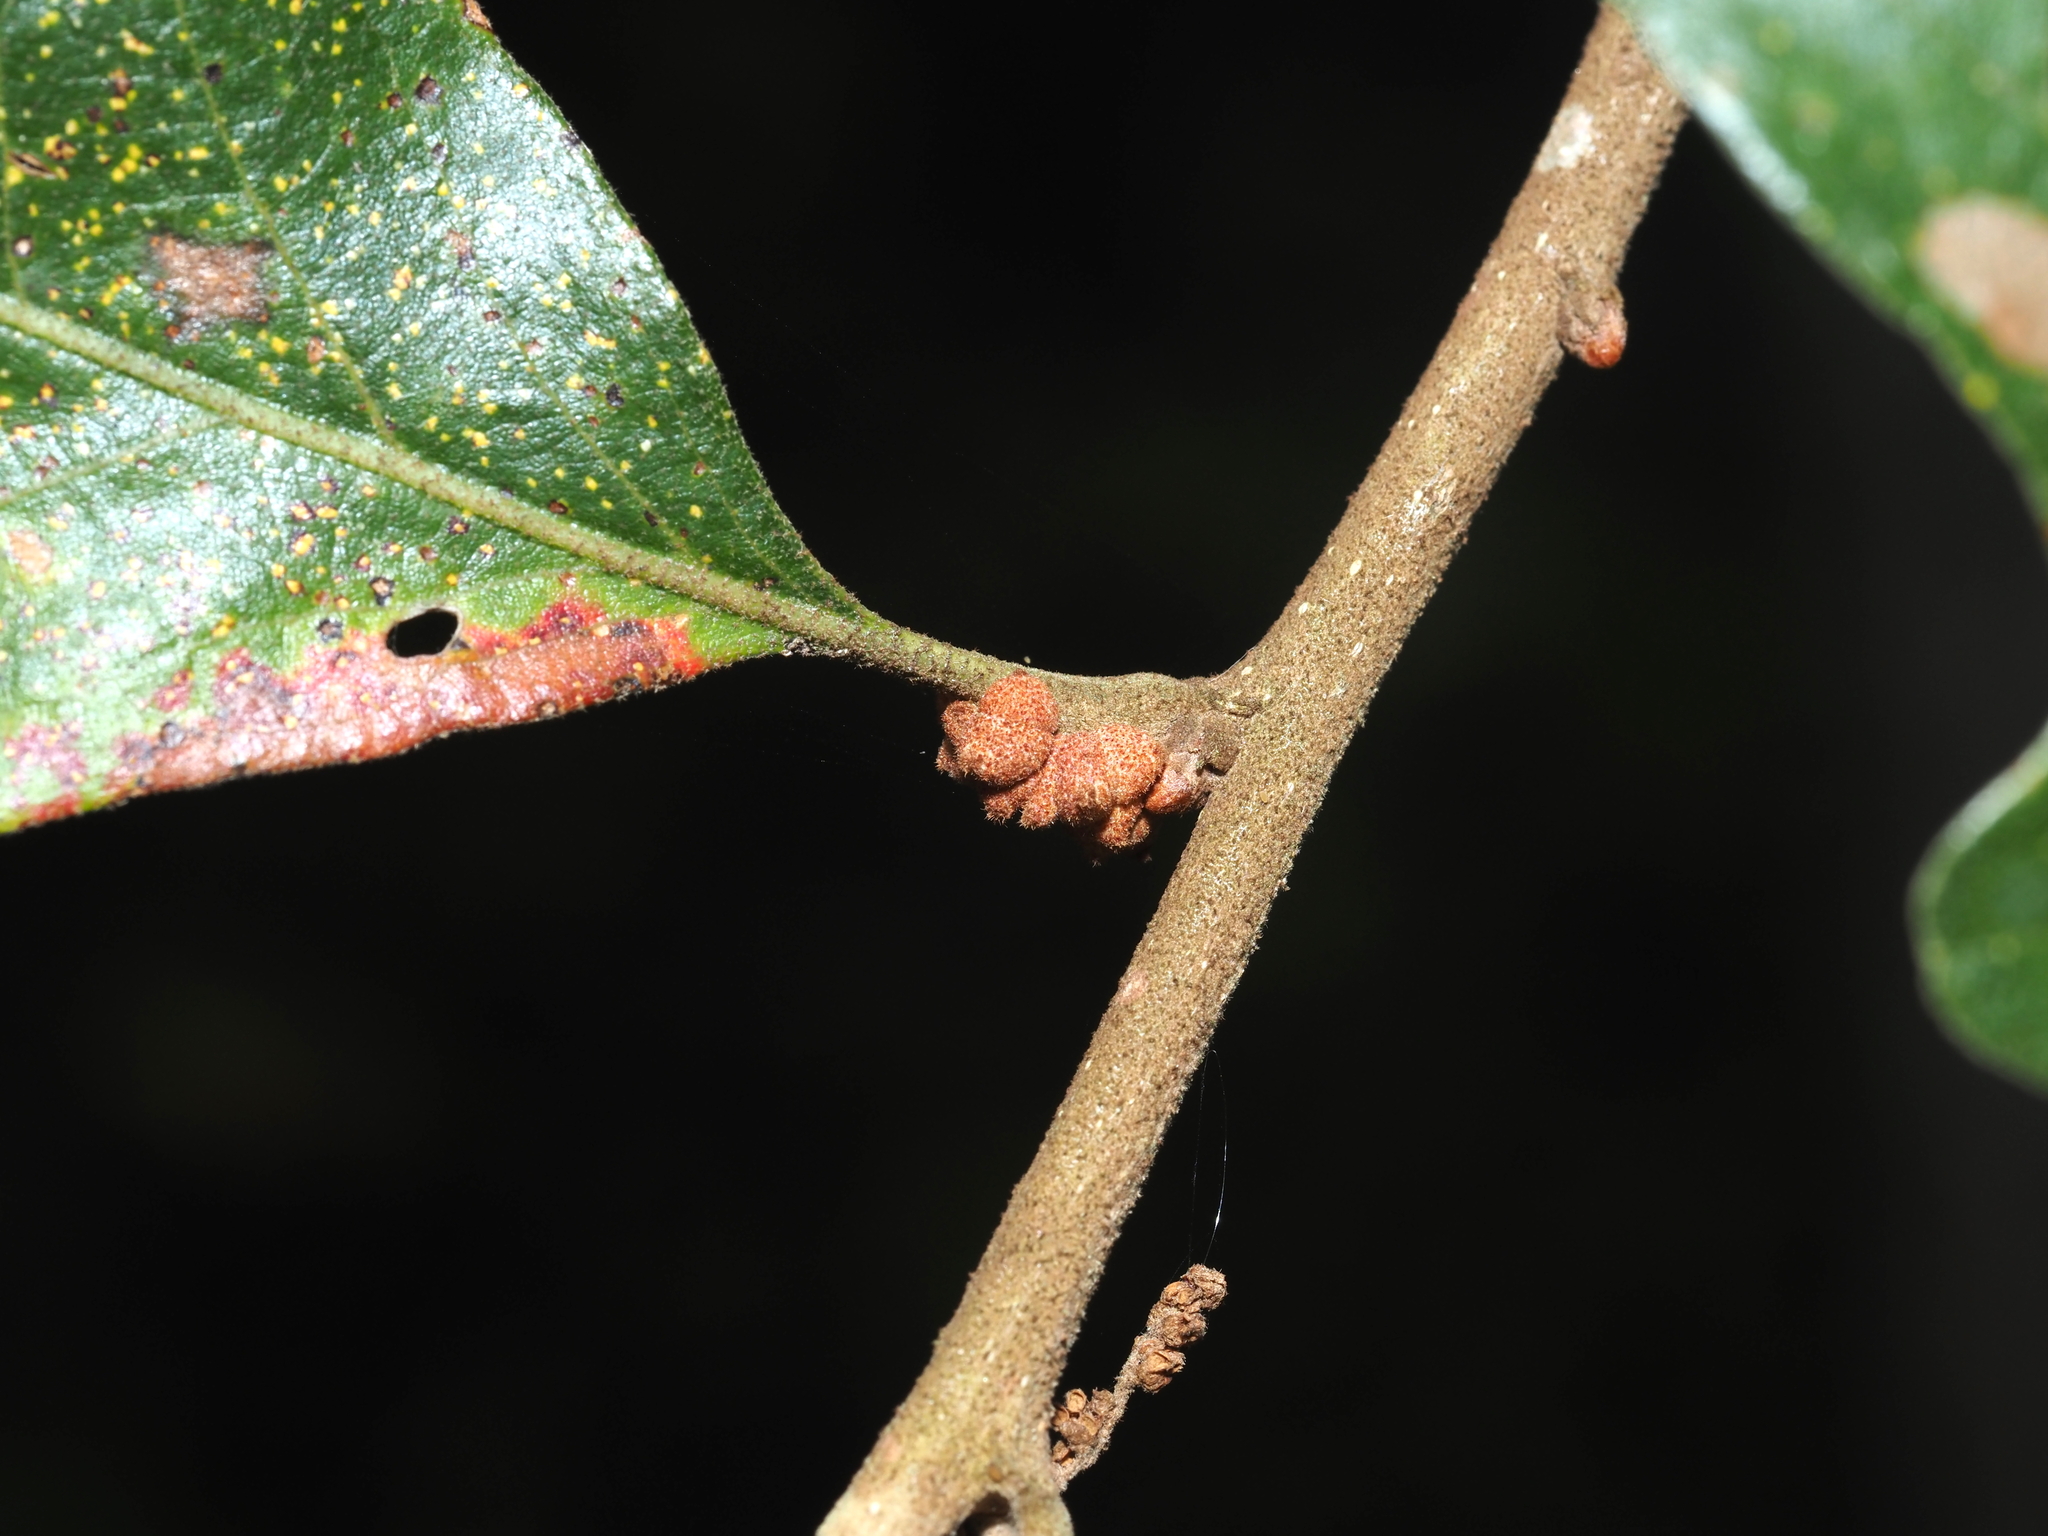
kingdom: Animalia
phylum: Arthropoda
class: Insecta
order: Hymenoptera
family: Cynipidae
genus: Andricus
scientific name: Andricus
